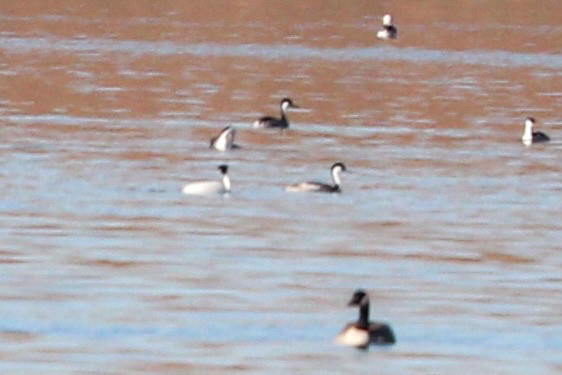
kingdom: Animalia
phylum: Chordata
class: Aves
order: Podicipediformes
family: Podicipedidae
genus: Aechmophorus
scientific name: Aechmophorus occidentalis
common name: Western grebe
